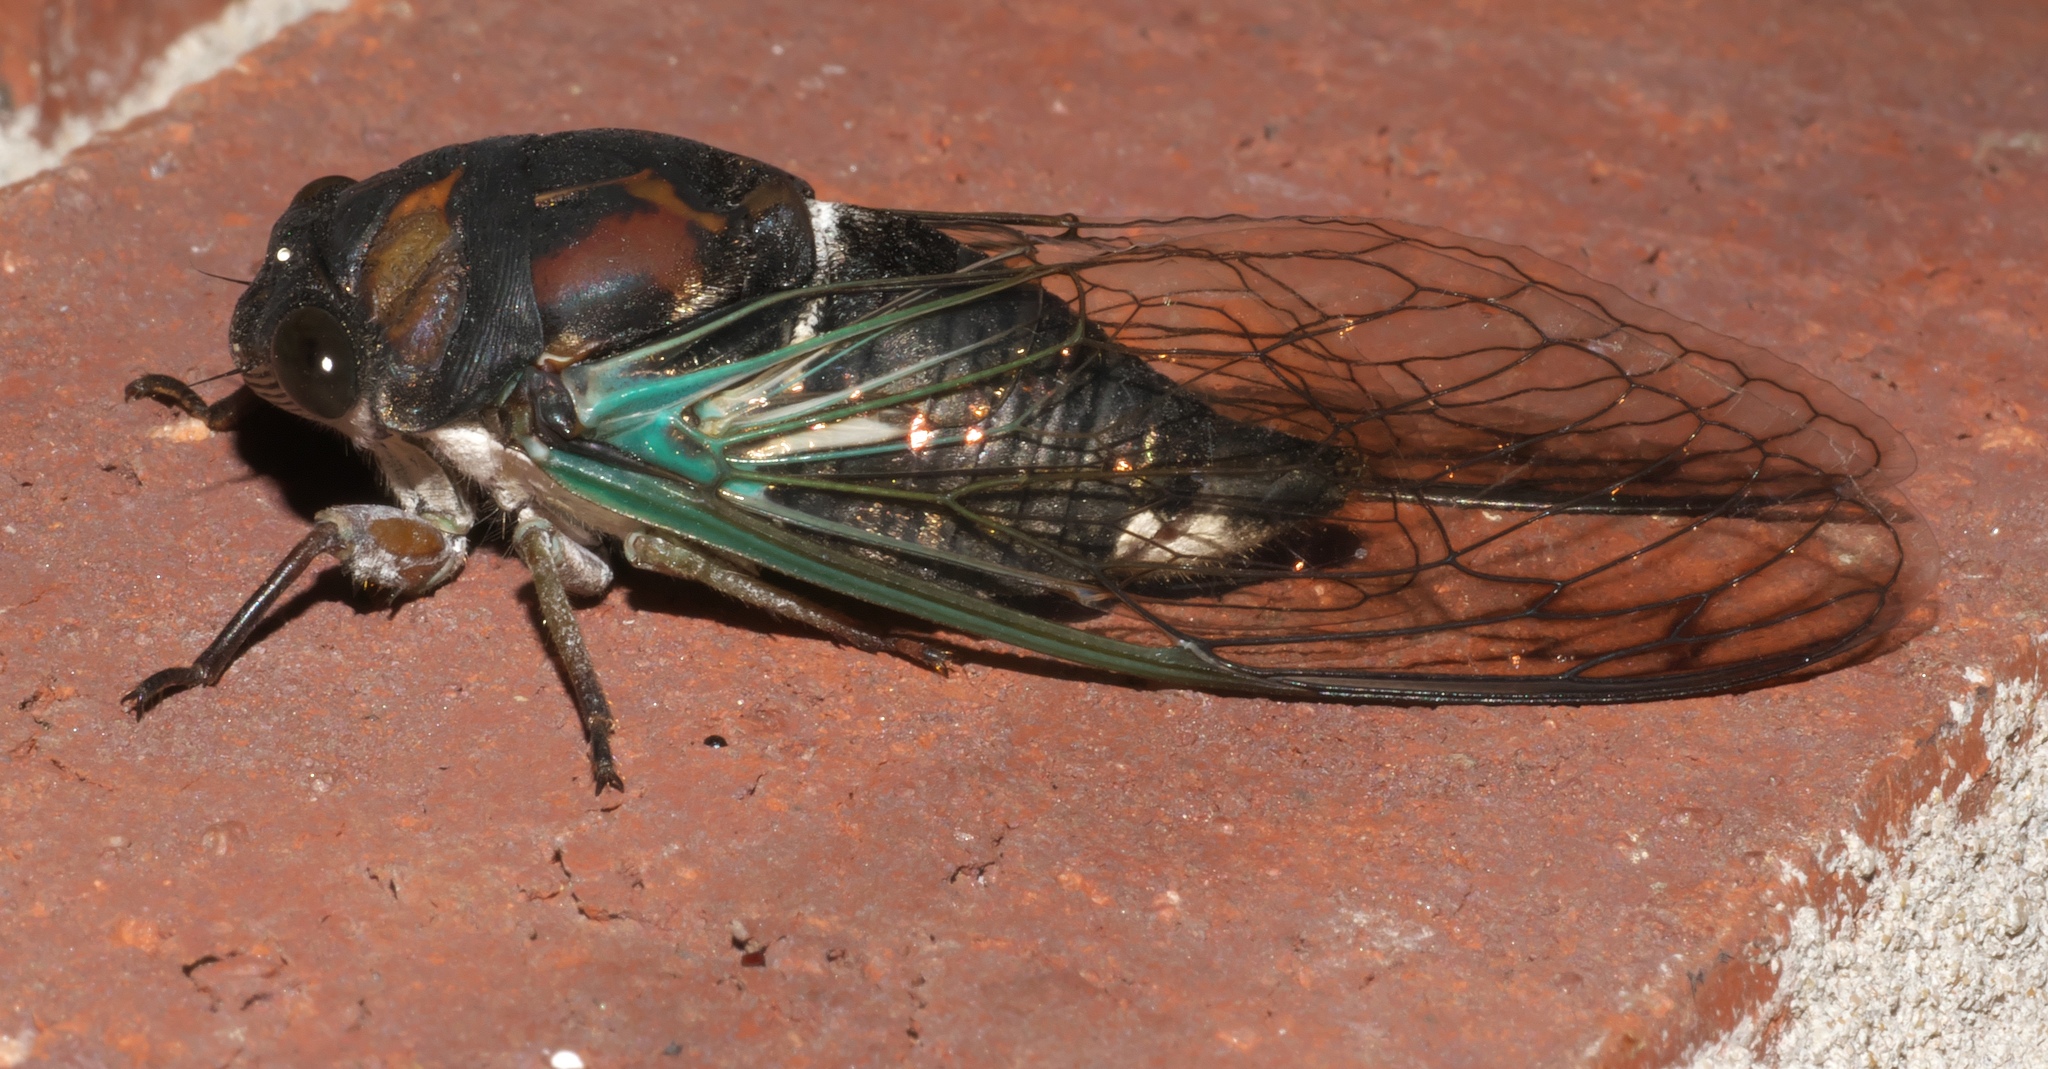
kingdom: Animalia
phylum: Arthropoda
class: Insecta
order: Hemiptera
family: Cicadidae
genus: Neotibicen
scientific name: Neotibicen lyricen
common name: Lyric cicada
